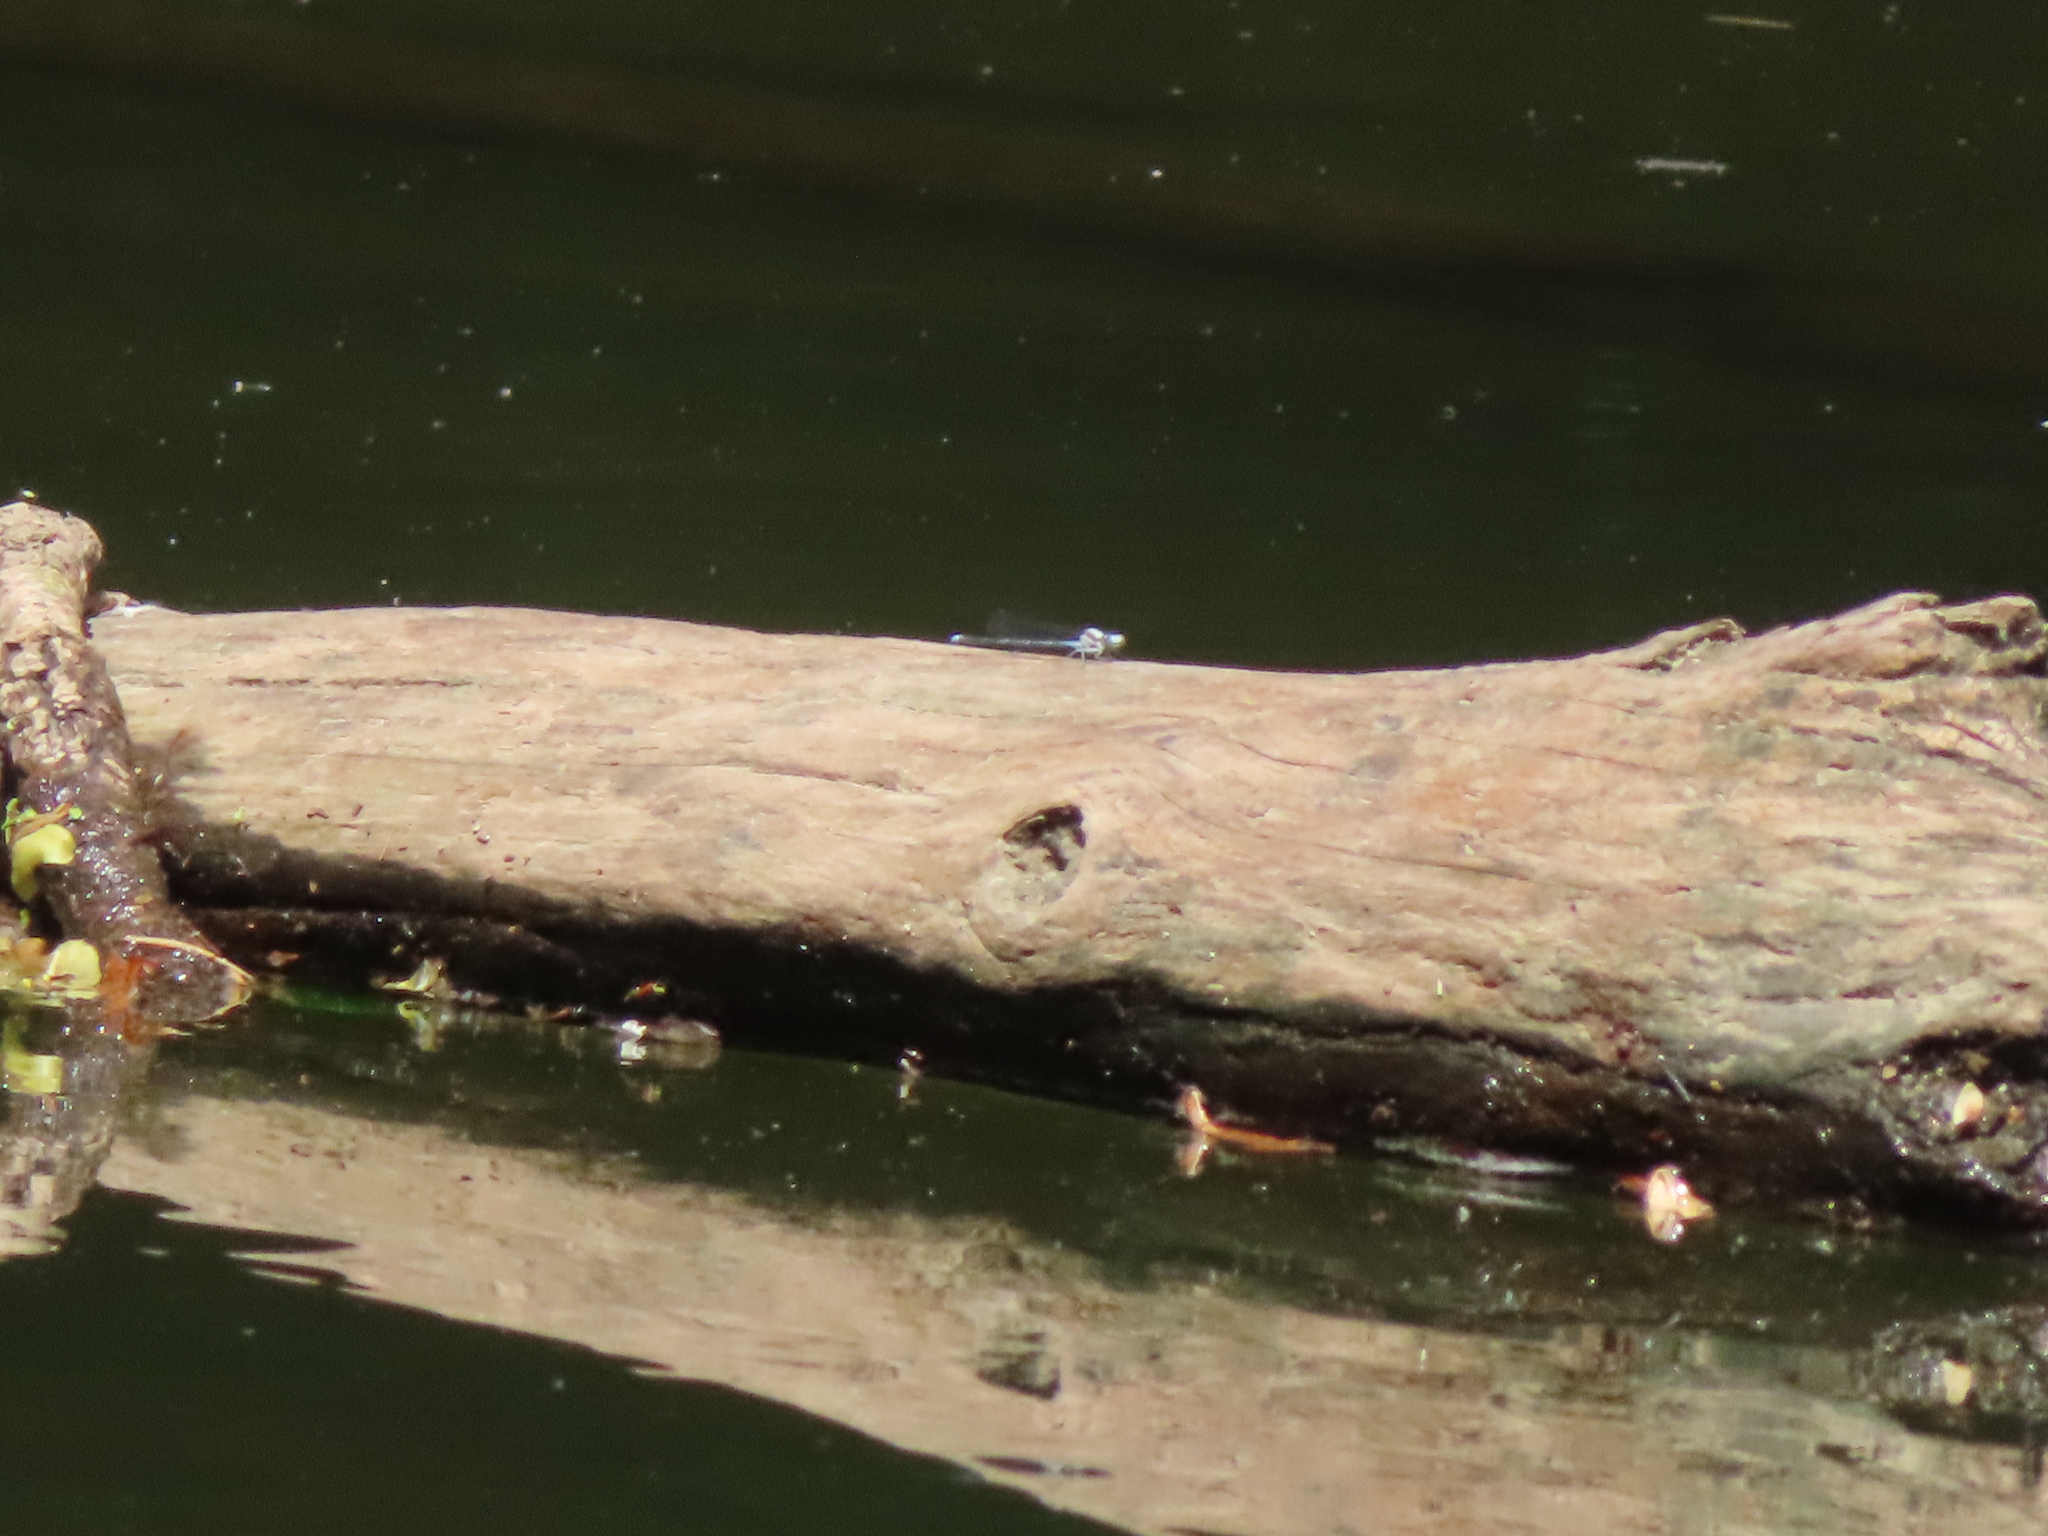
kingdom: Animalia
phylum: Arthropoda
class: Insecta
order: Odonata
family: Coenagrionidae
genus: Argia
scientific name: Argia moesta
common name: Powdered dancer
